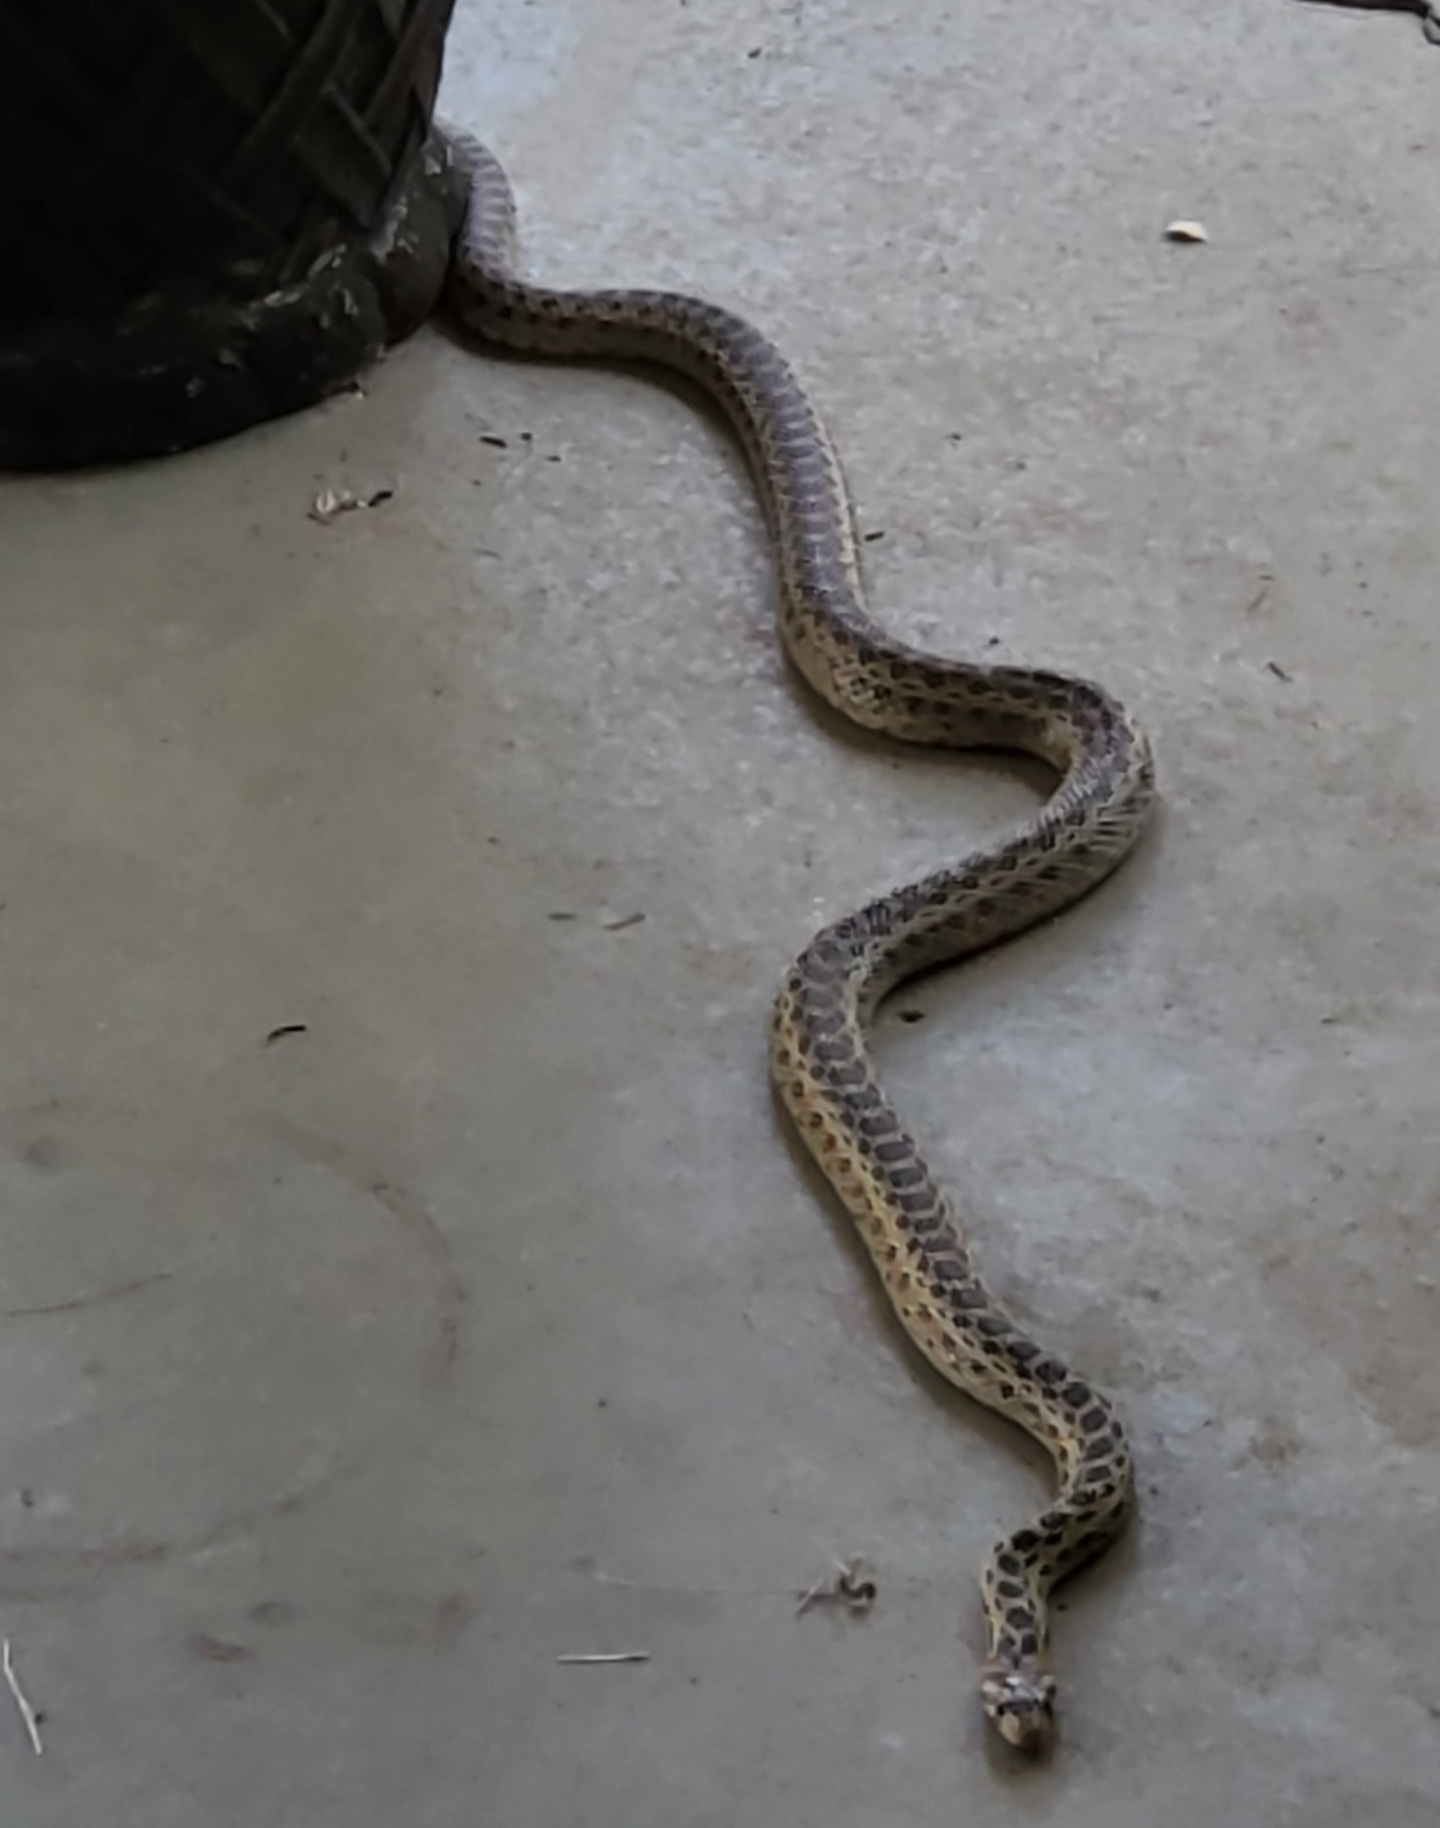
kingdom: Animalia
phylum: Chordata
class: Squamata
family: Colubridae
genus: Pituophis
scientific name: Pituophis catenifer
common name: Gopher snake
